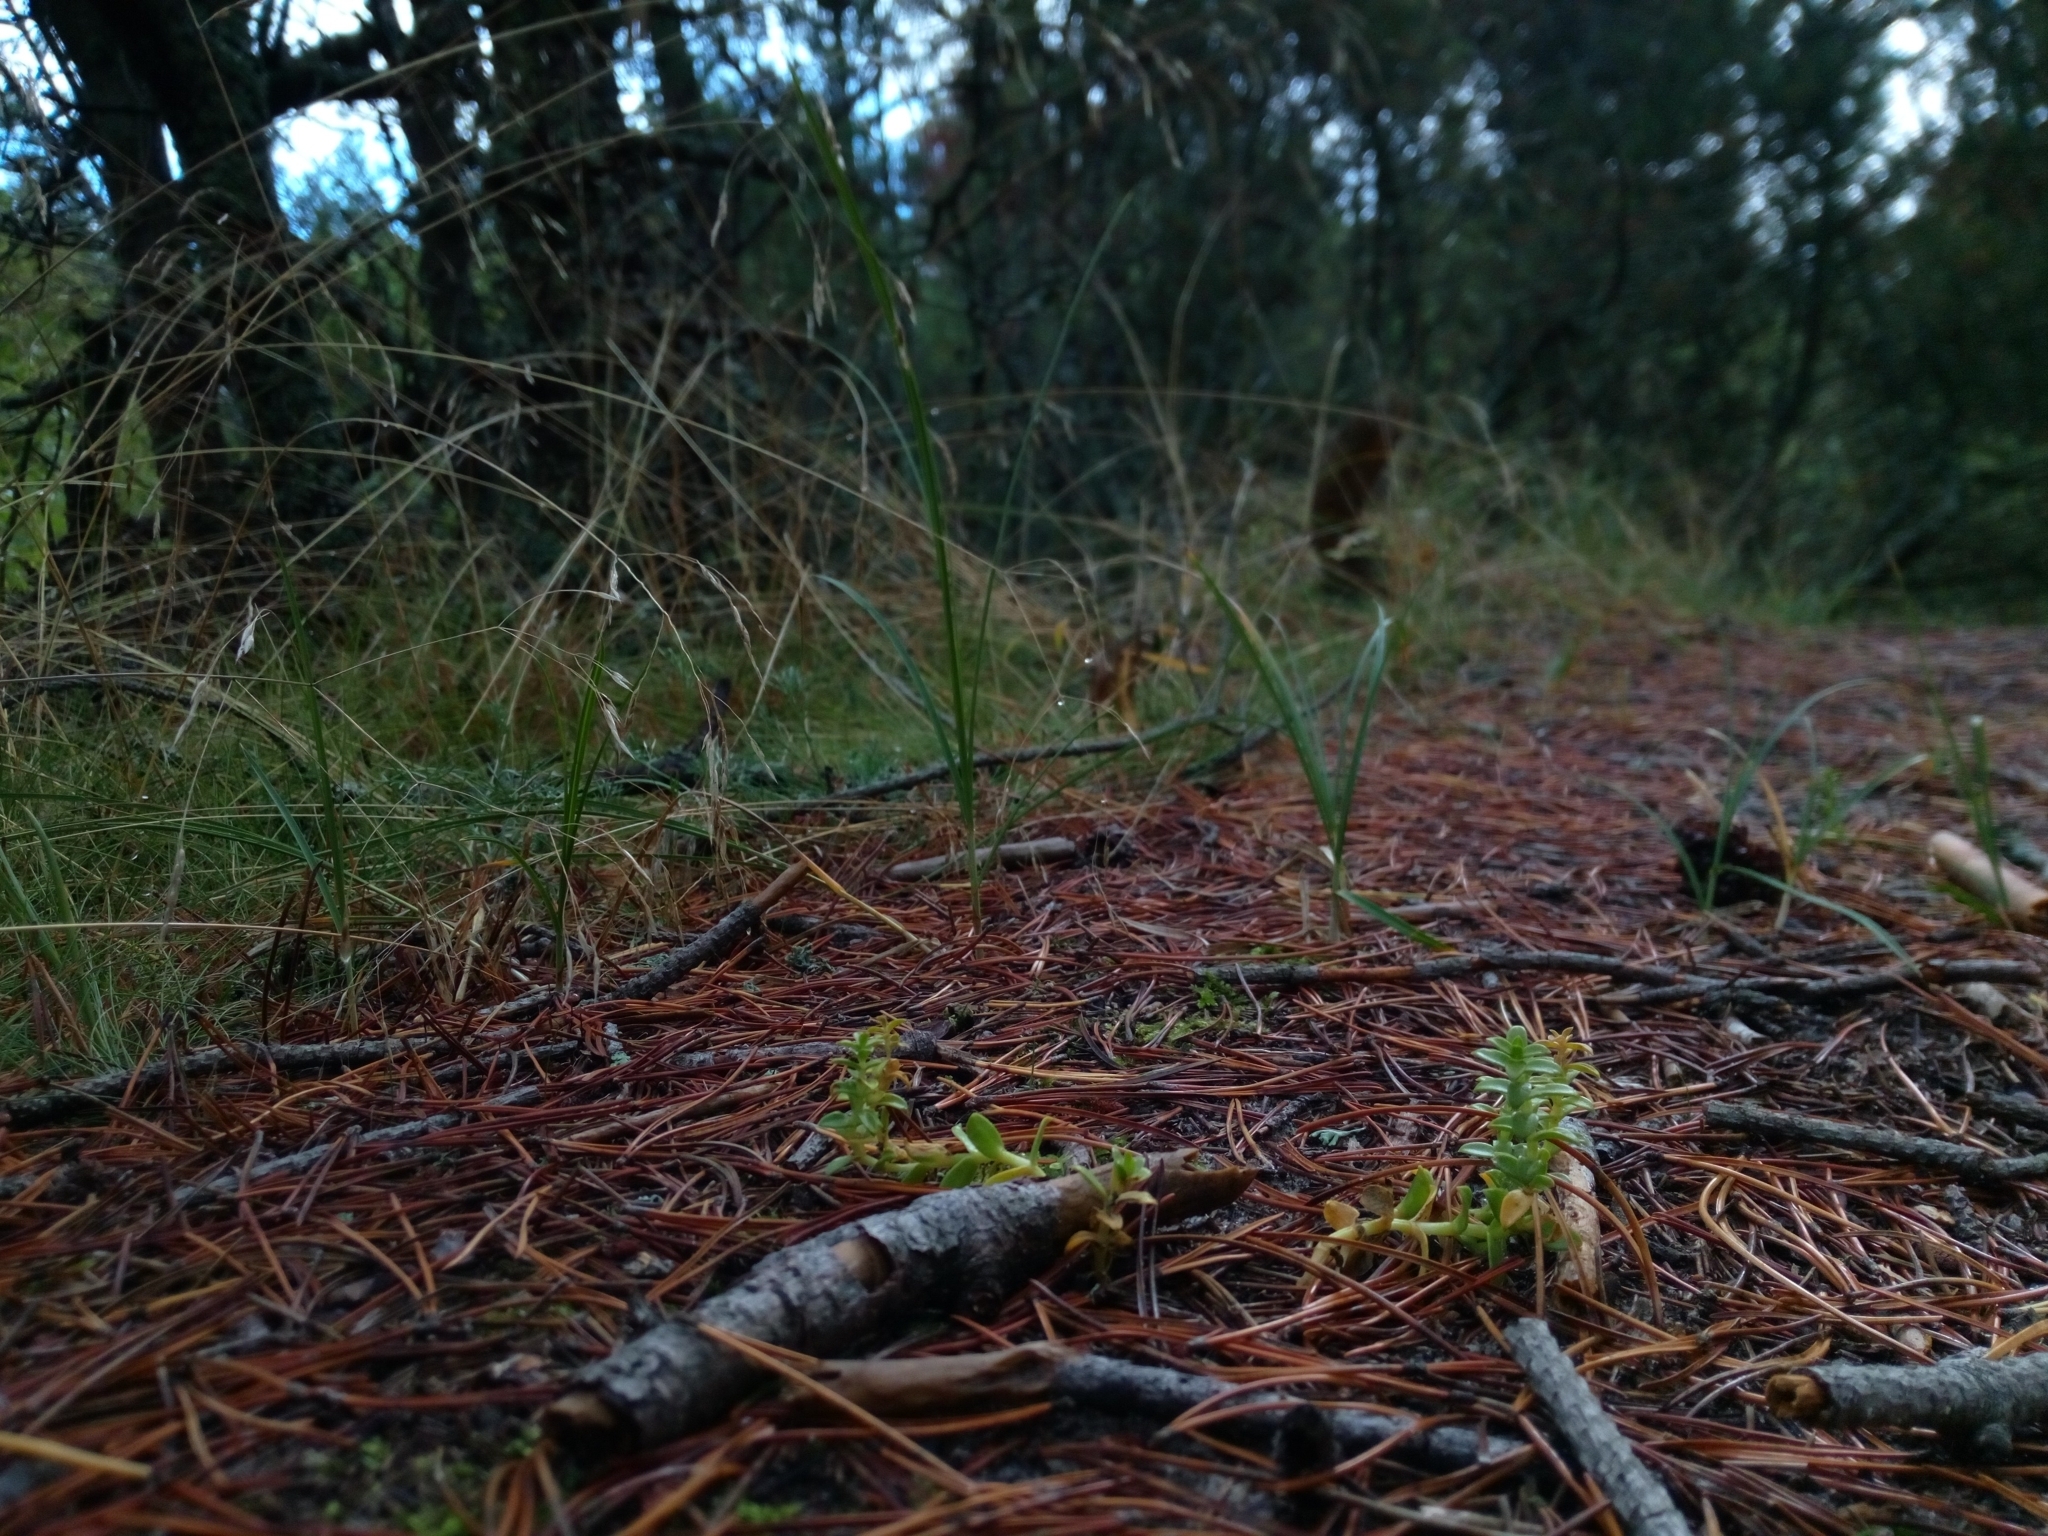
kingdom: Plantae
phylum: Tracheophyta
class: Magnoliopsida
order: Caryophyllales
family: Caryophyllaceae
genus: Honckenya
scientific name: Honckenya peploides
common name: Sea sandwort
